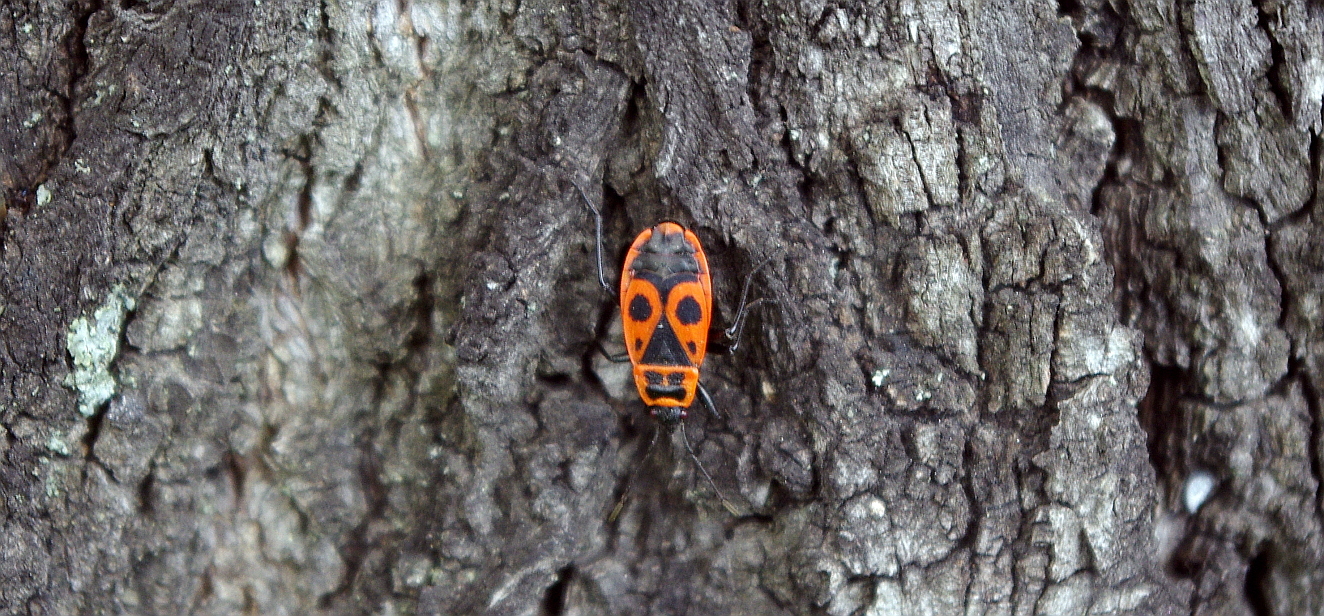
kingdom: Animalia
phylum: Arthropoda
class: Insecta
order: Hemiptera
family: Pyrrhocoridae
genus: Pyrrhocoris
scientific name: Pyrrhocoris apterus
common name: Firebug
